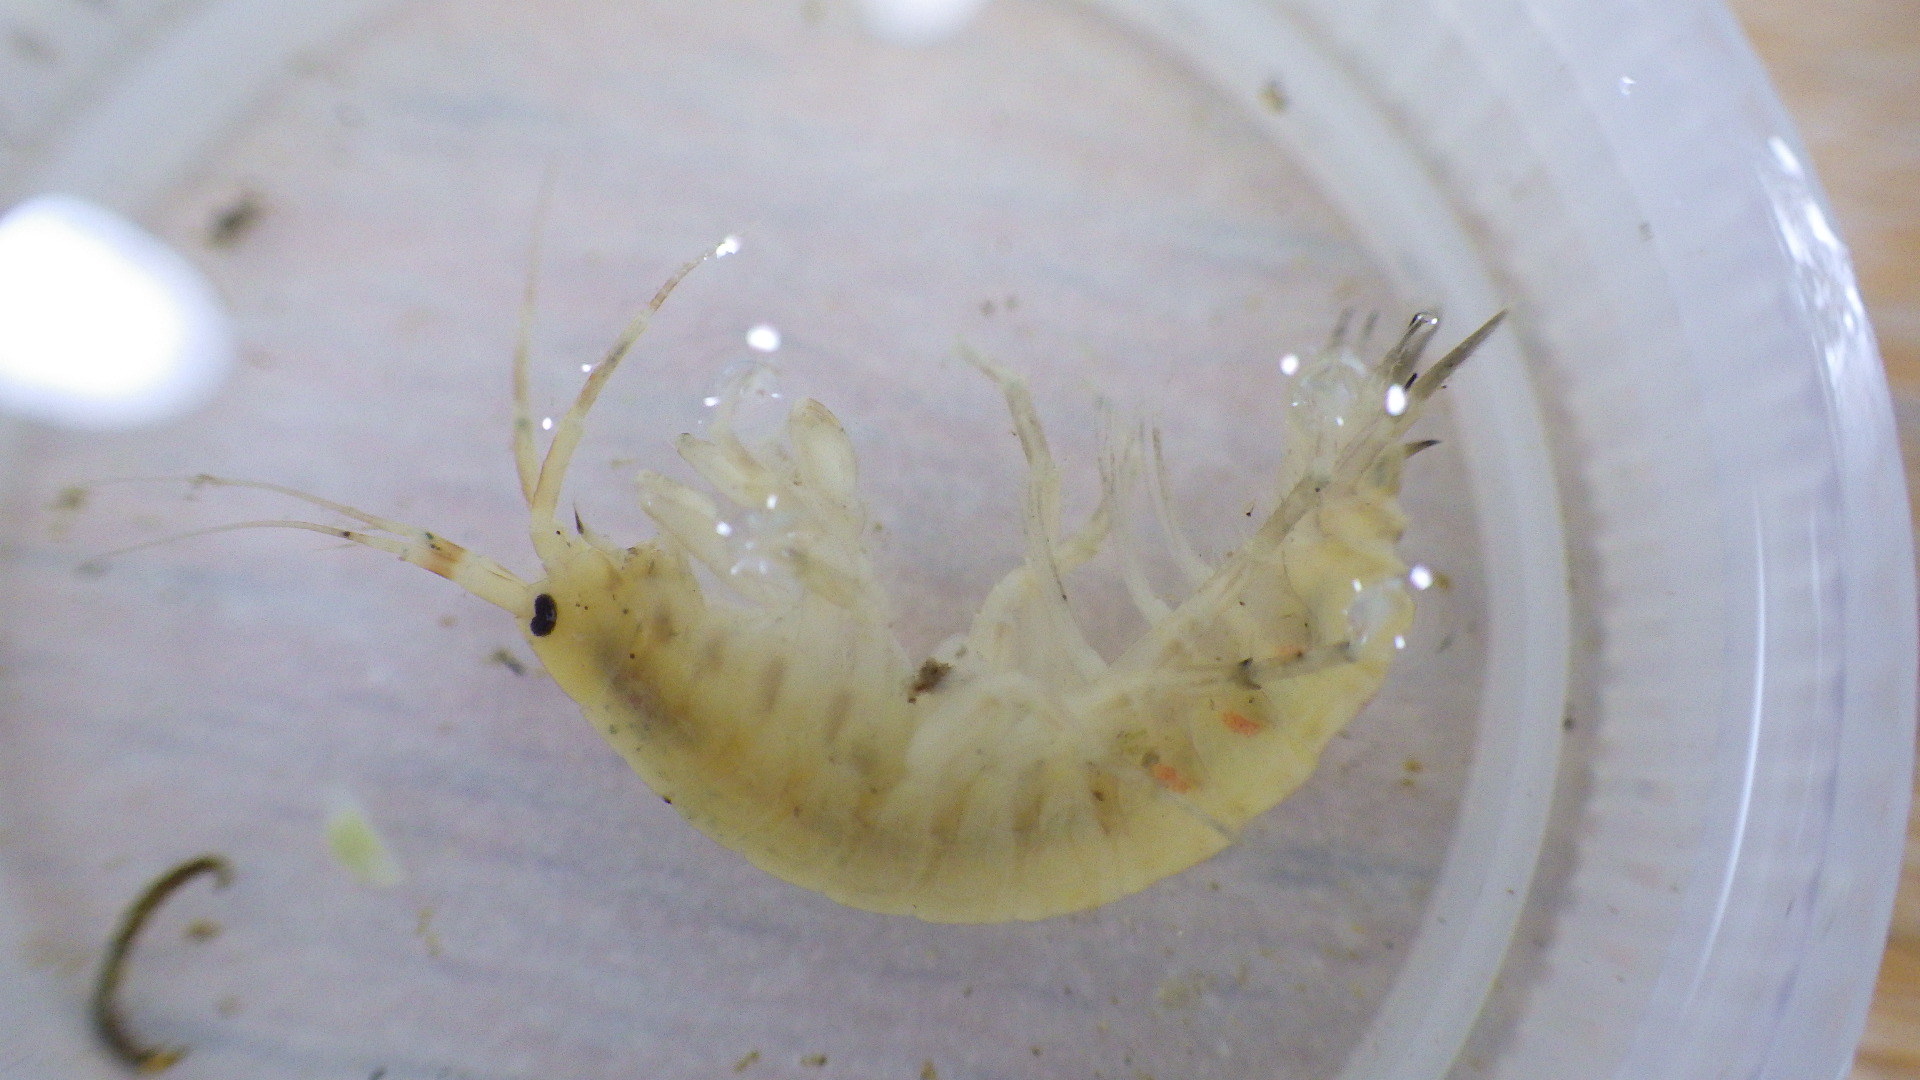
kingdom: Animalia
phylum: Arthropoda
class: Malacostraca
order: Amphipoda
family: Gammaridae
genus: Gammarus
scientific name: Gammarus fasciatus
